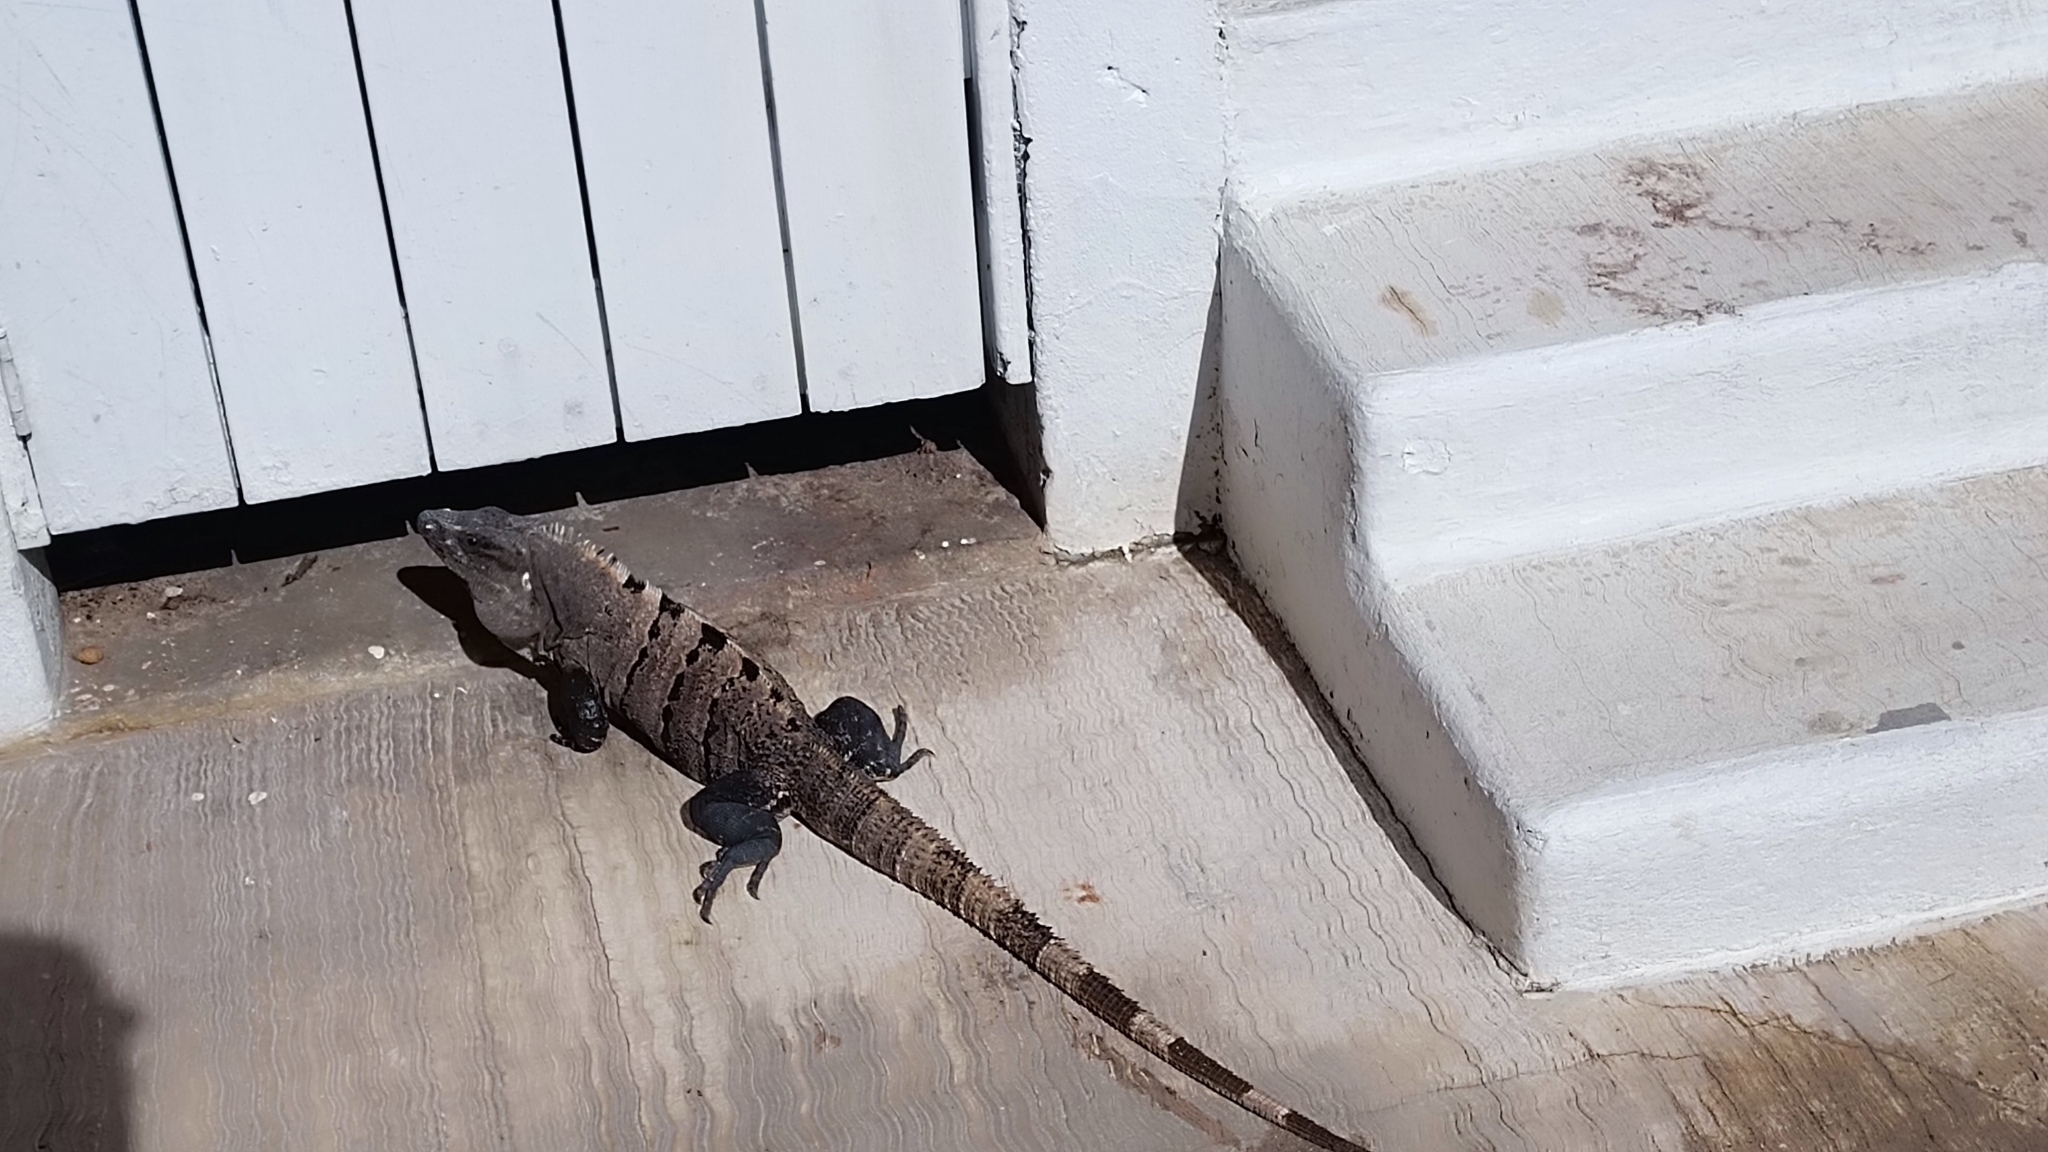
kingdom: Animalia
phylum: Chordata
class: Squamata
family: Iguanidae
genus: Ctenosaura
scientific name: Ctenosaura similis
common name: Black spiny-tailed iguana
